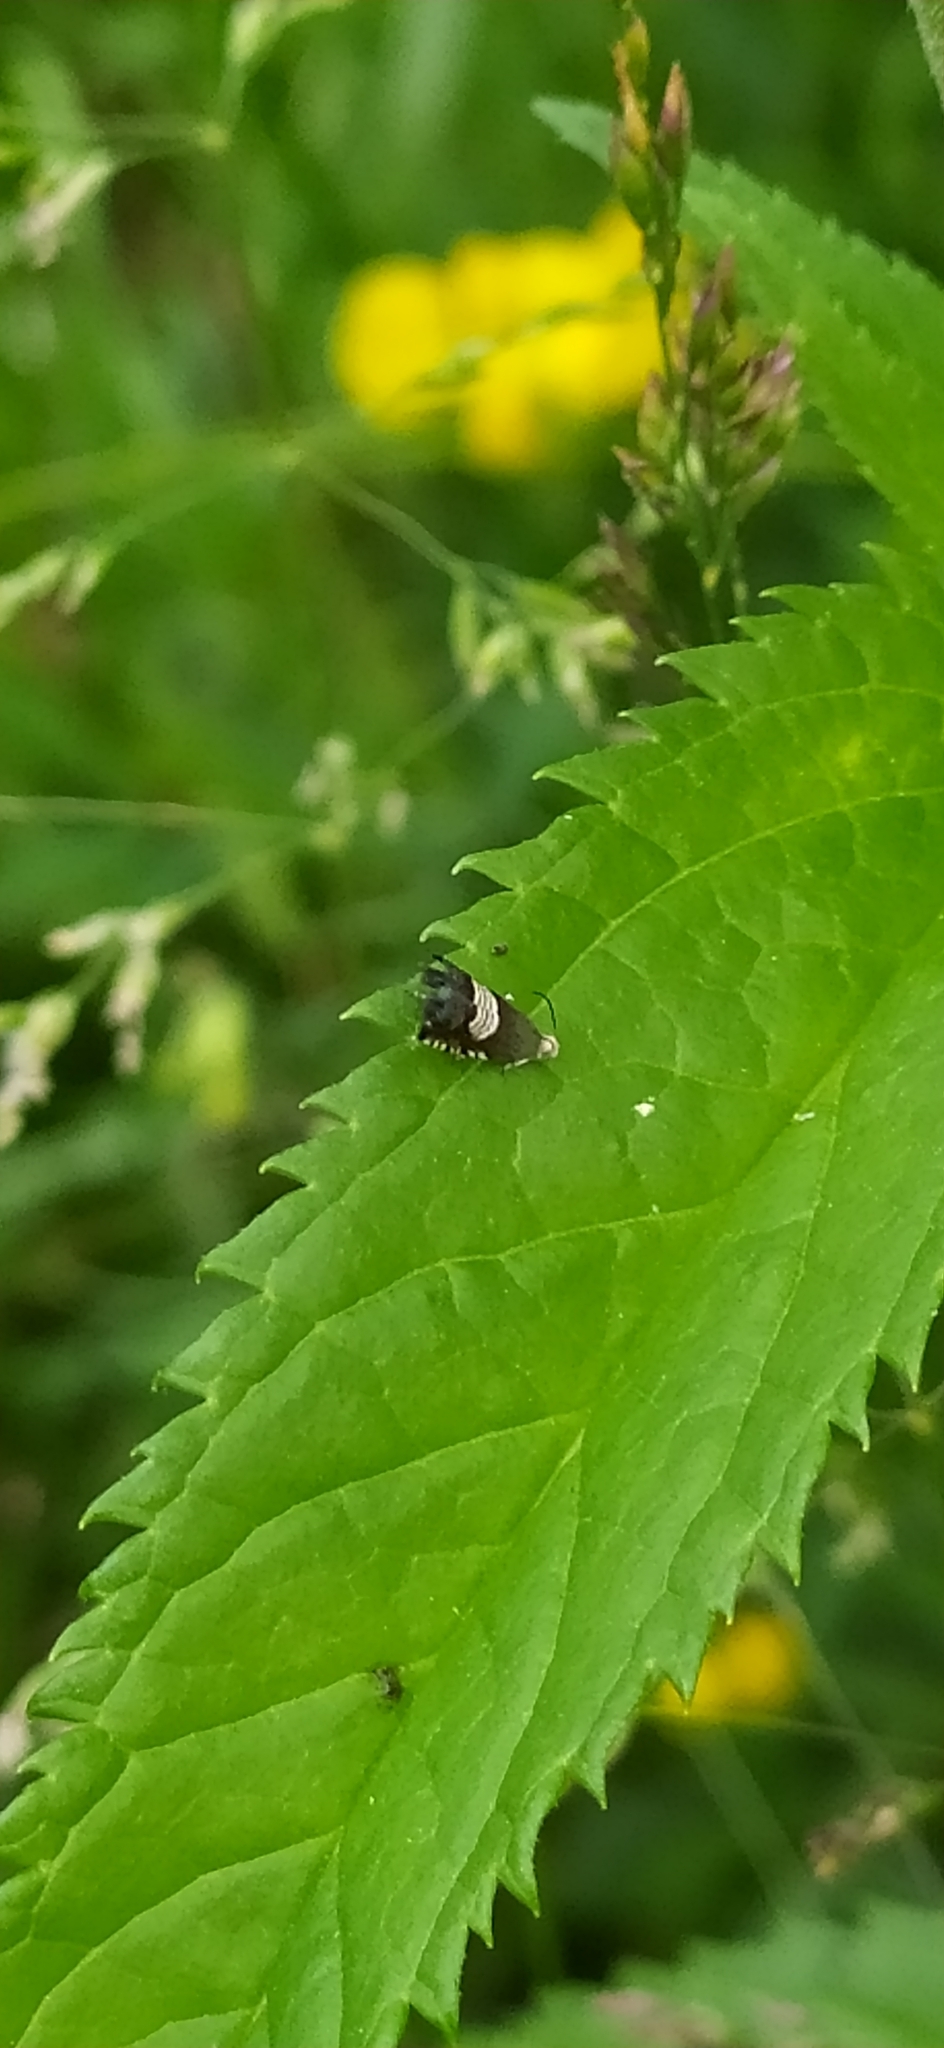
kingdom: Animalia
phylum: Arthropoda
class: Insecta
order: Lepidoptera
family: Tortricidae
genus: Grapholita
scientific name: Grapholita compositella
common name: Triple-stripe piercer
